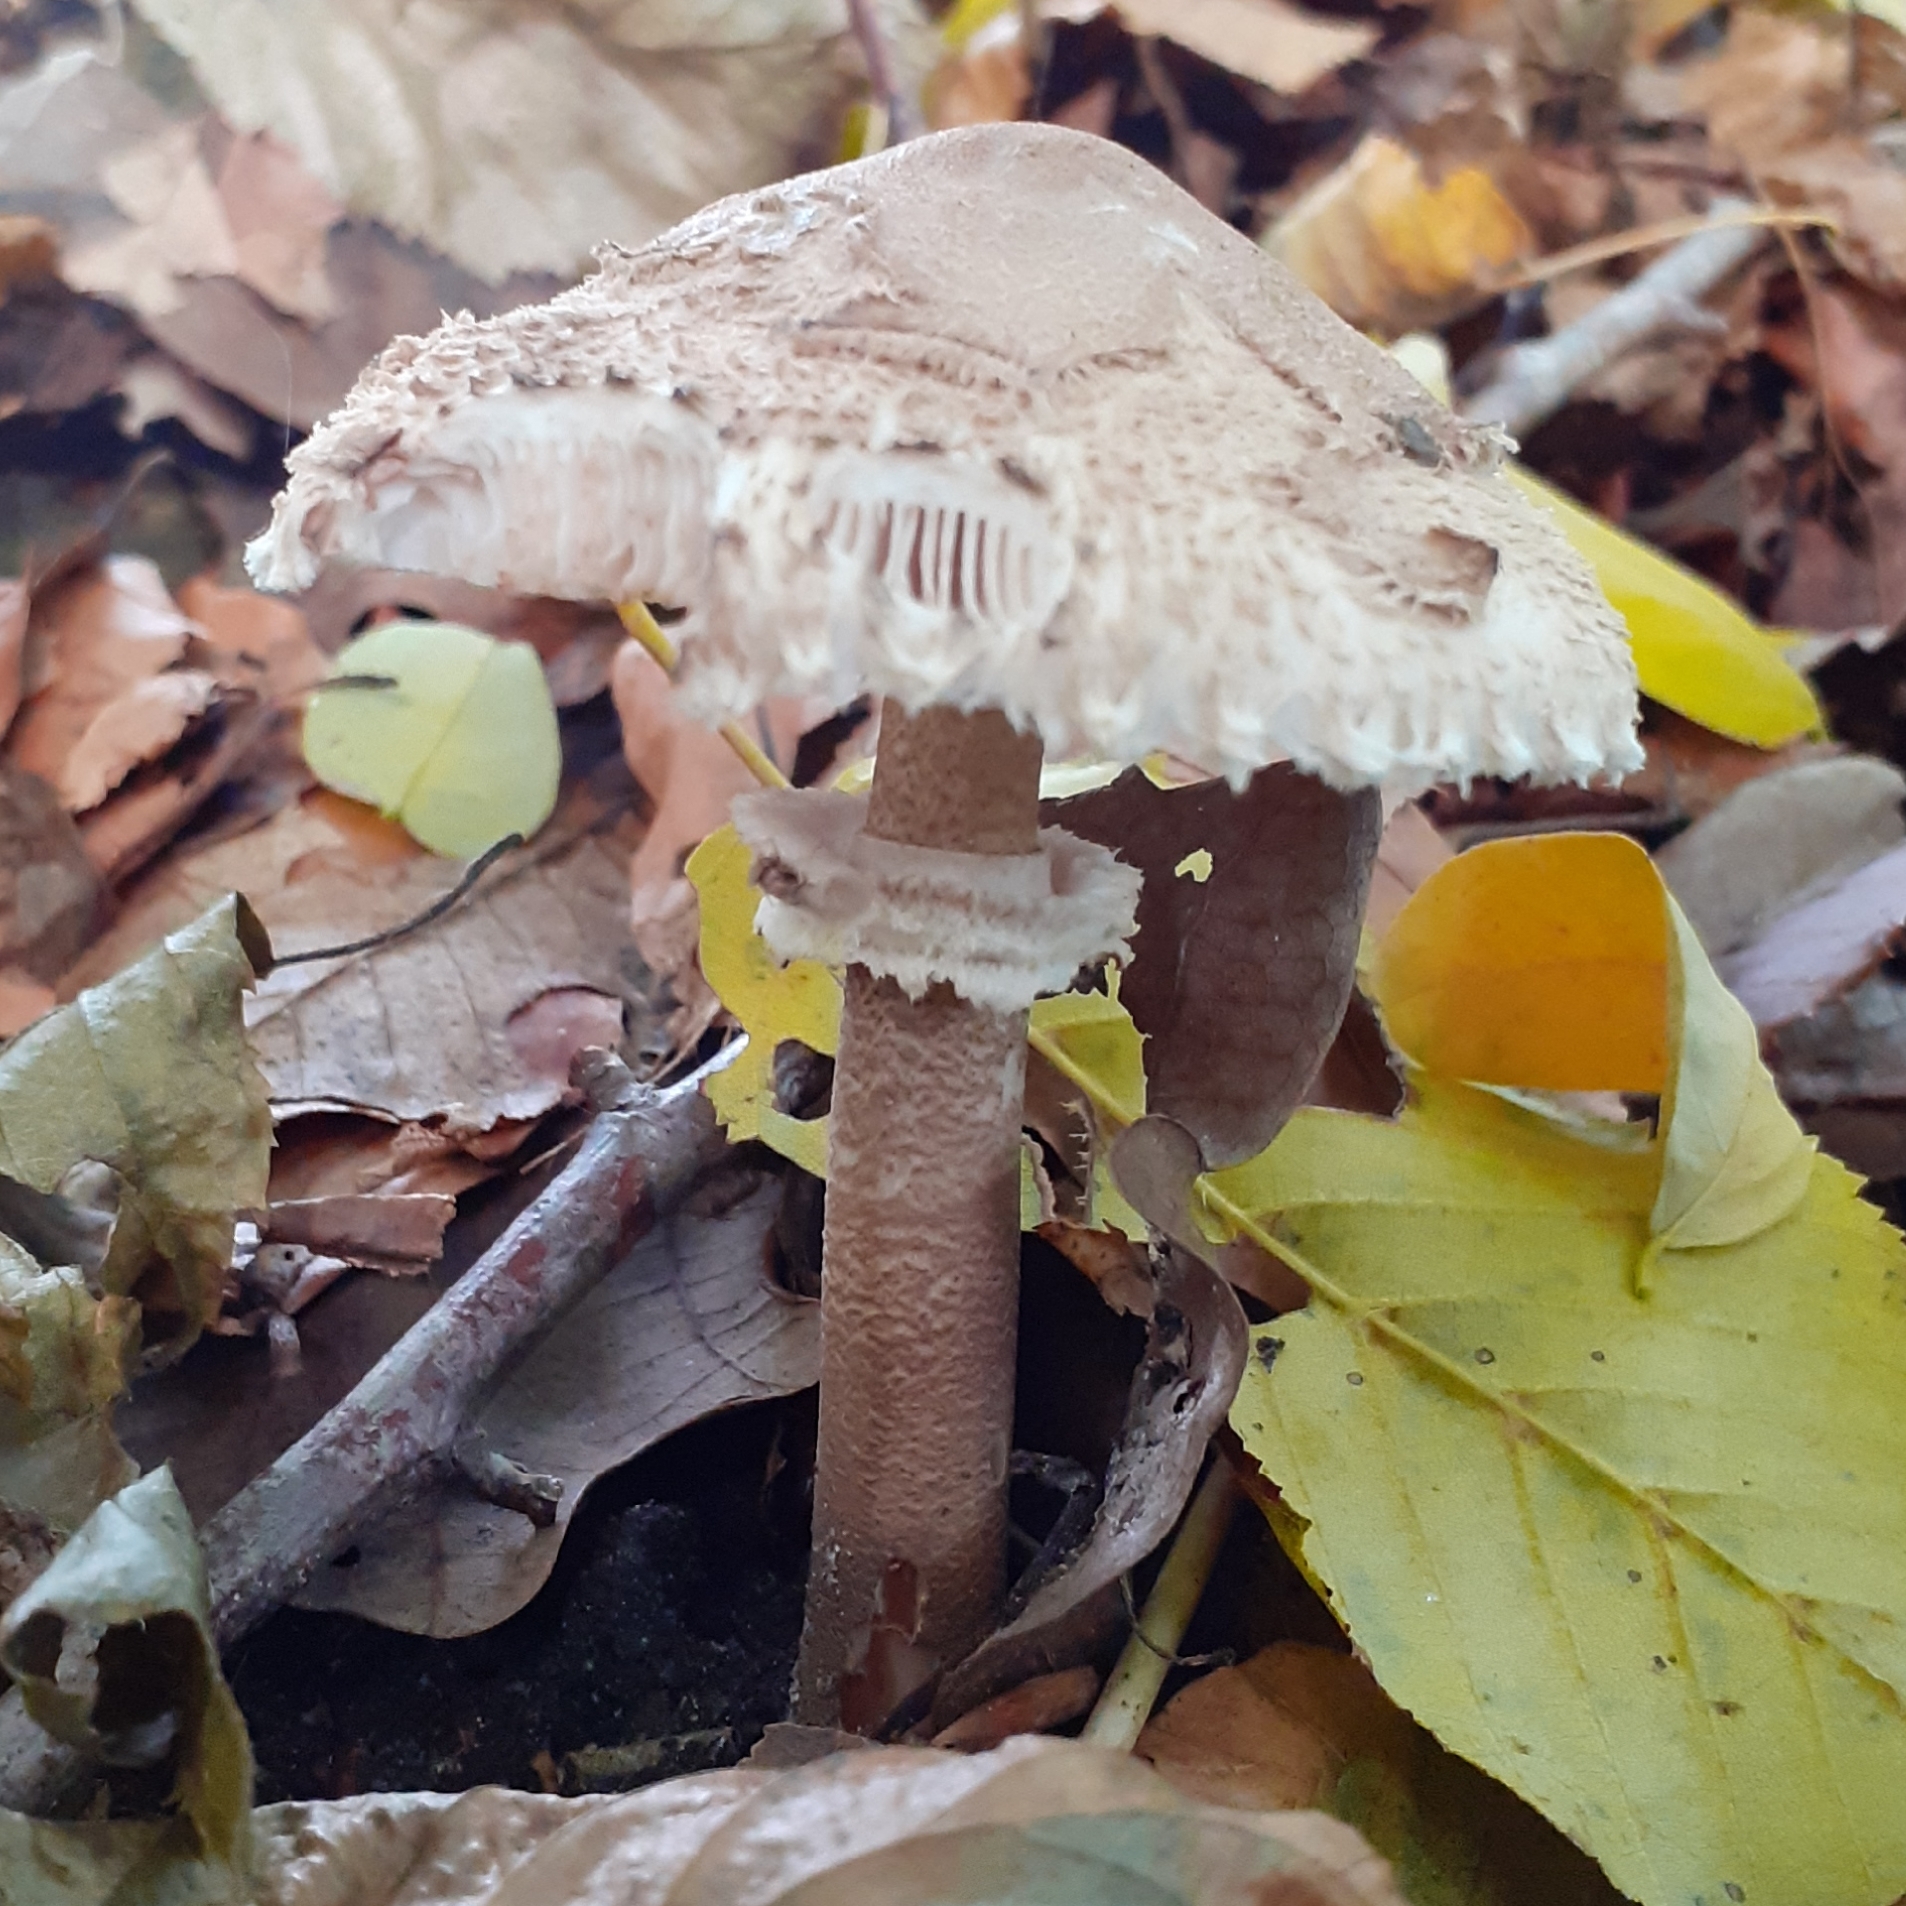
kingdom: Fungi
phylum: Basidiomycota
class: Agaricomycetes
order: Agaricales
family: Agaricaceae
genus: Macrolepiota
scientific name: Macrolepiota procera
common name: Parasol
